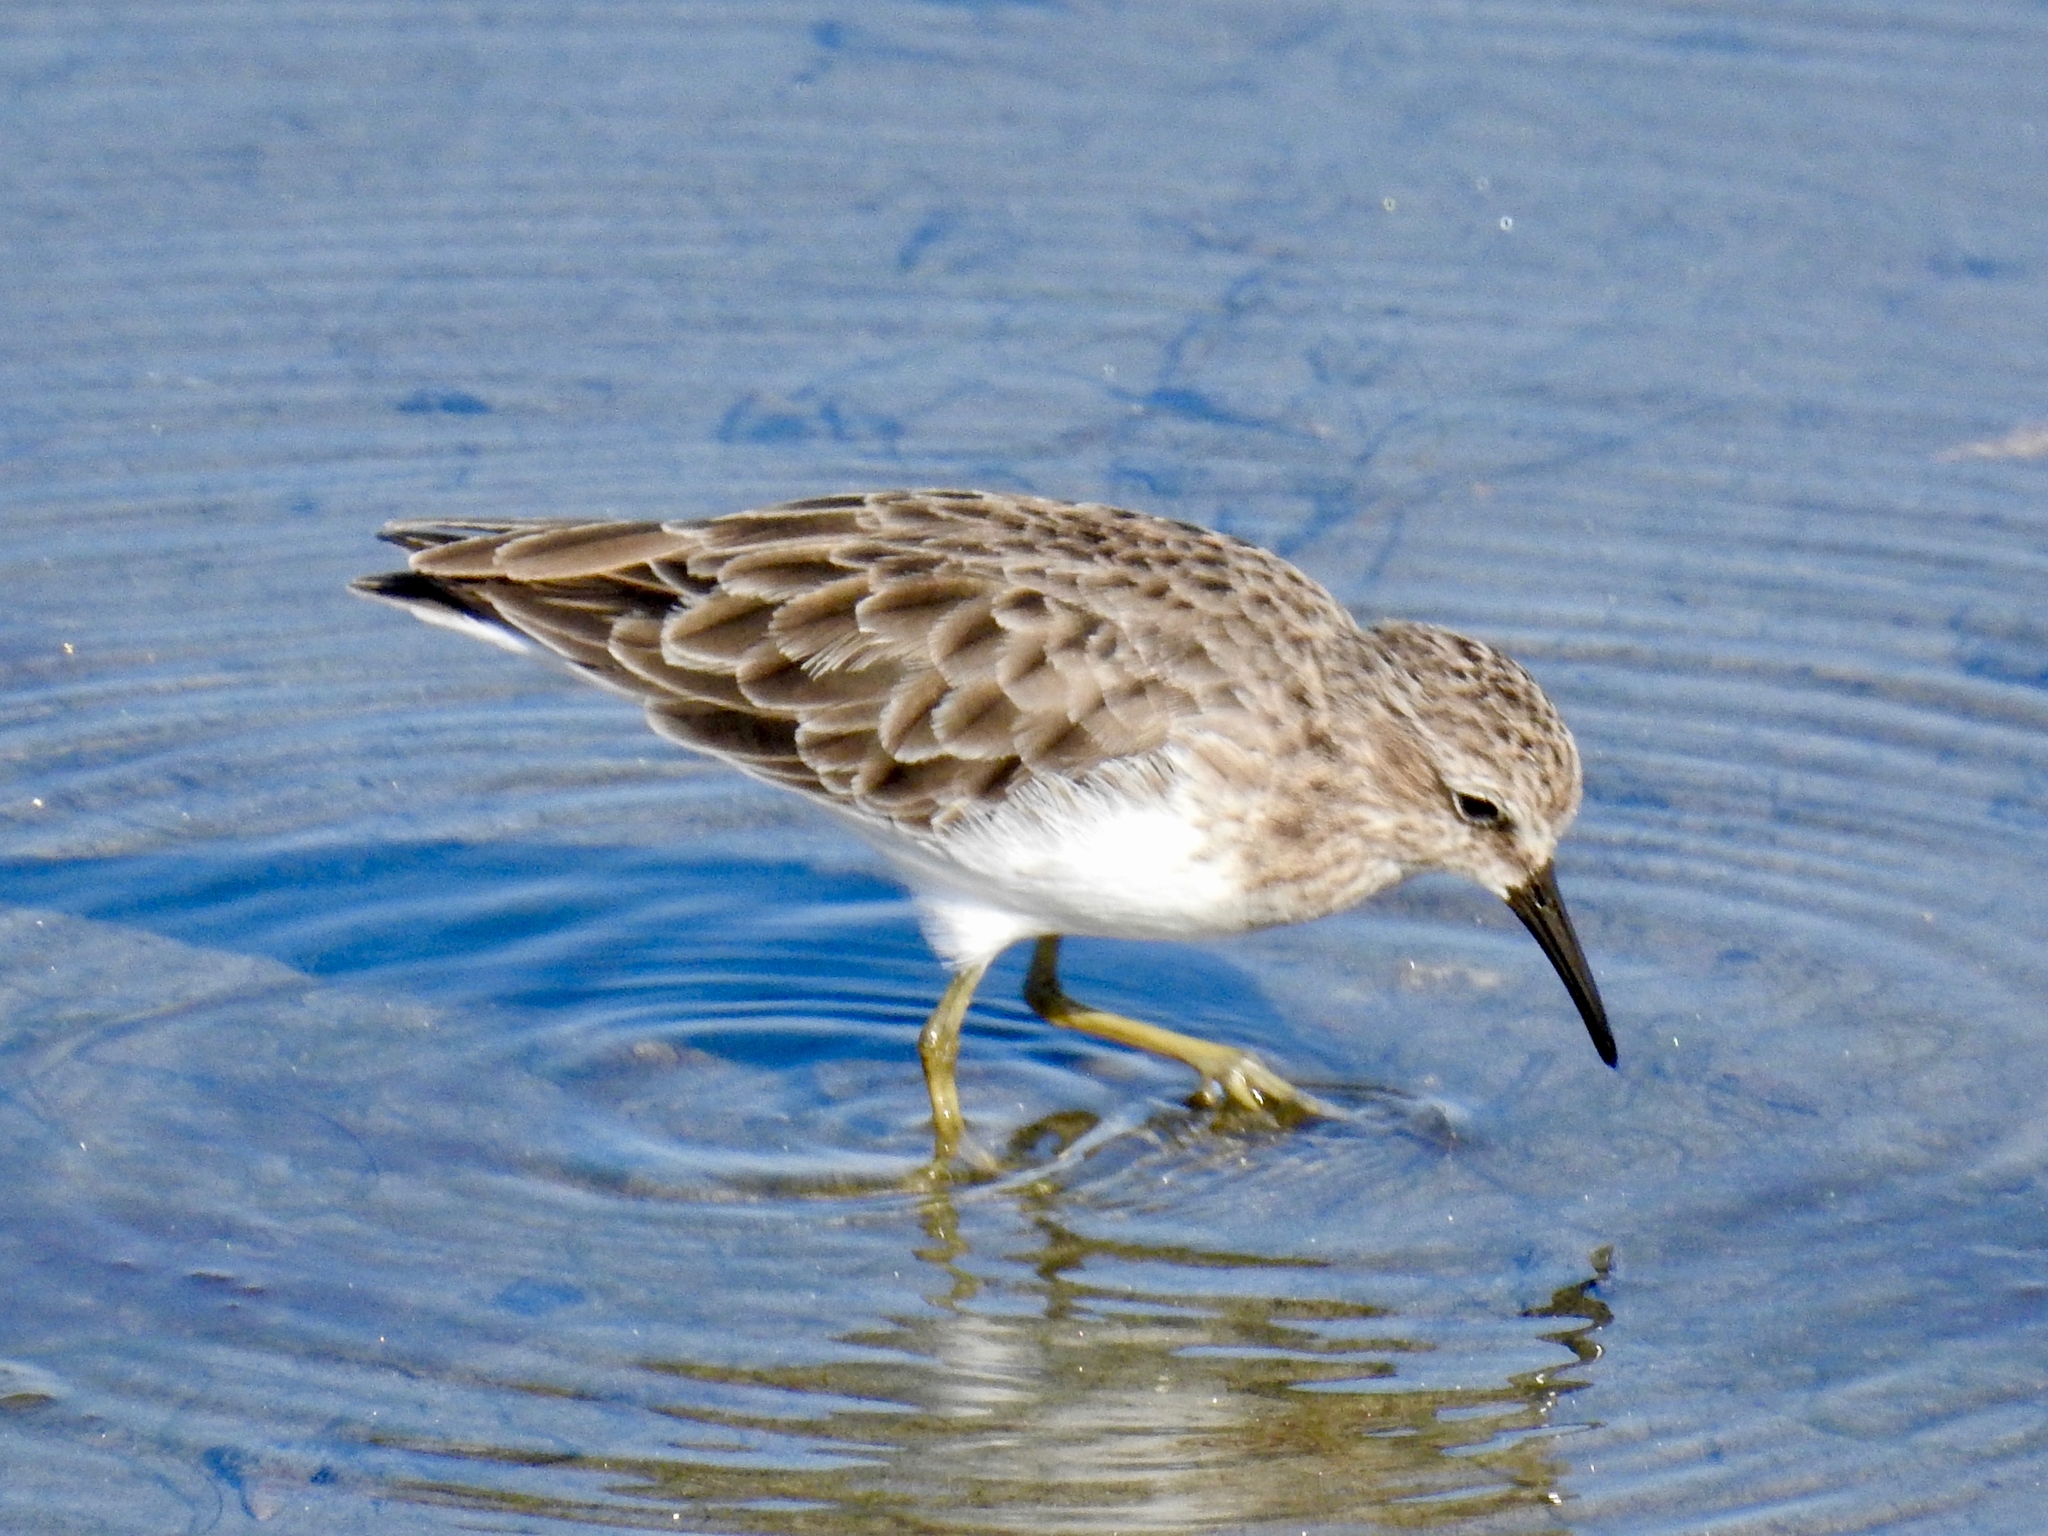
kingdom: Animalia
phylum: Chordata
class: Aves
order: Charadriiformes
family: Scolopacidae
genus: Calidris
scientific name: Calidris minutilla
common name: Least sandpiper
